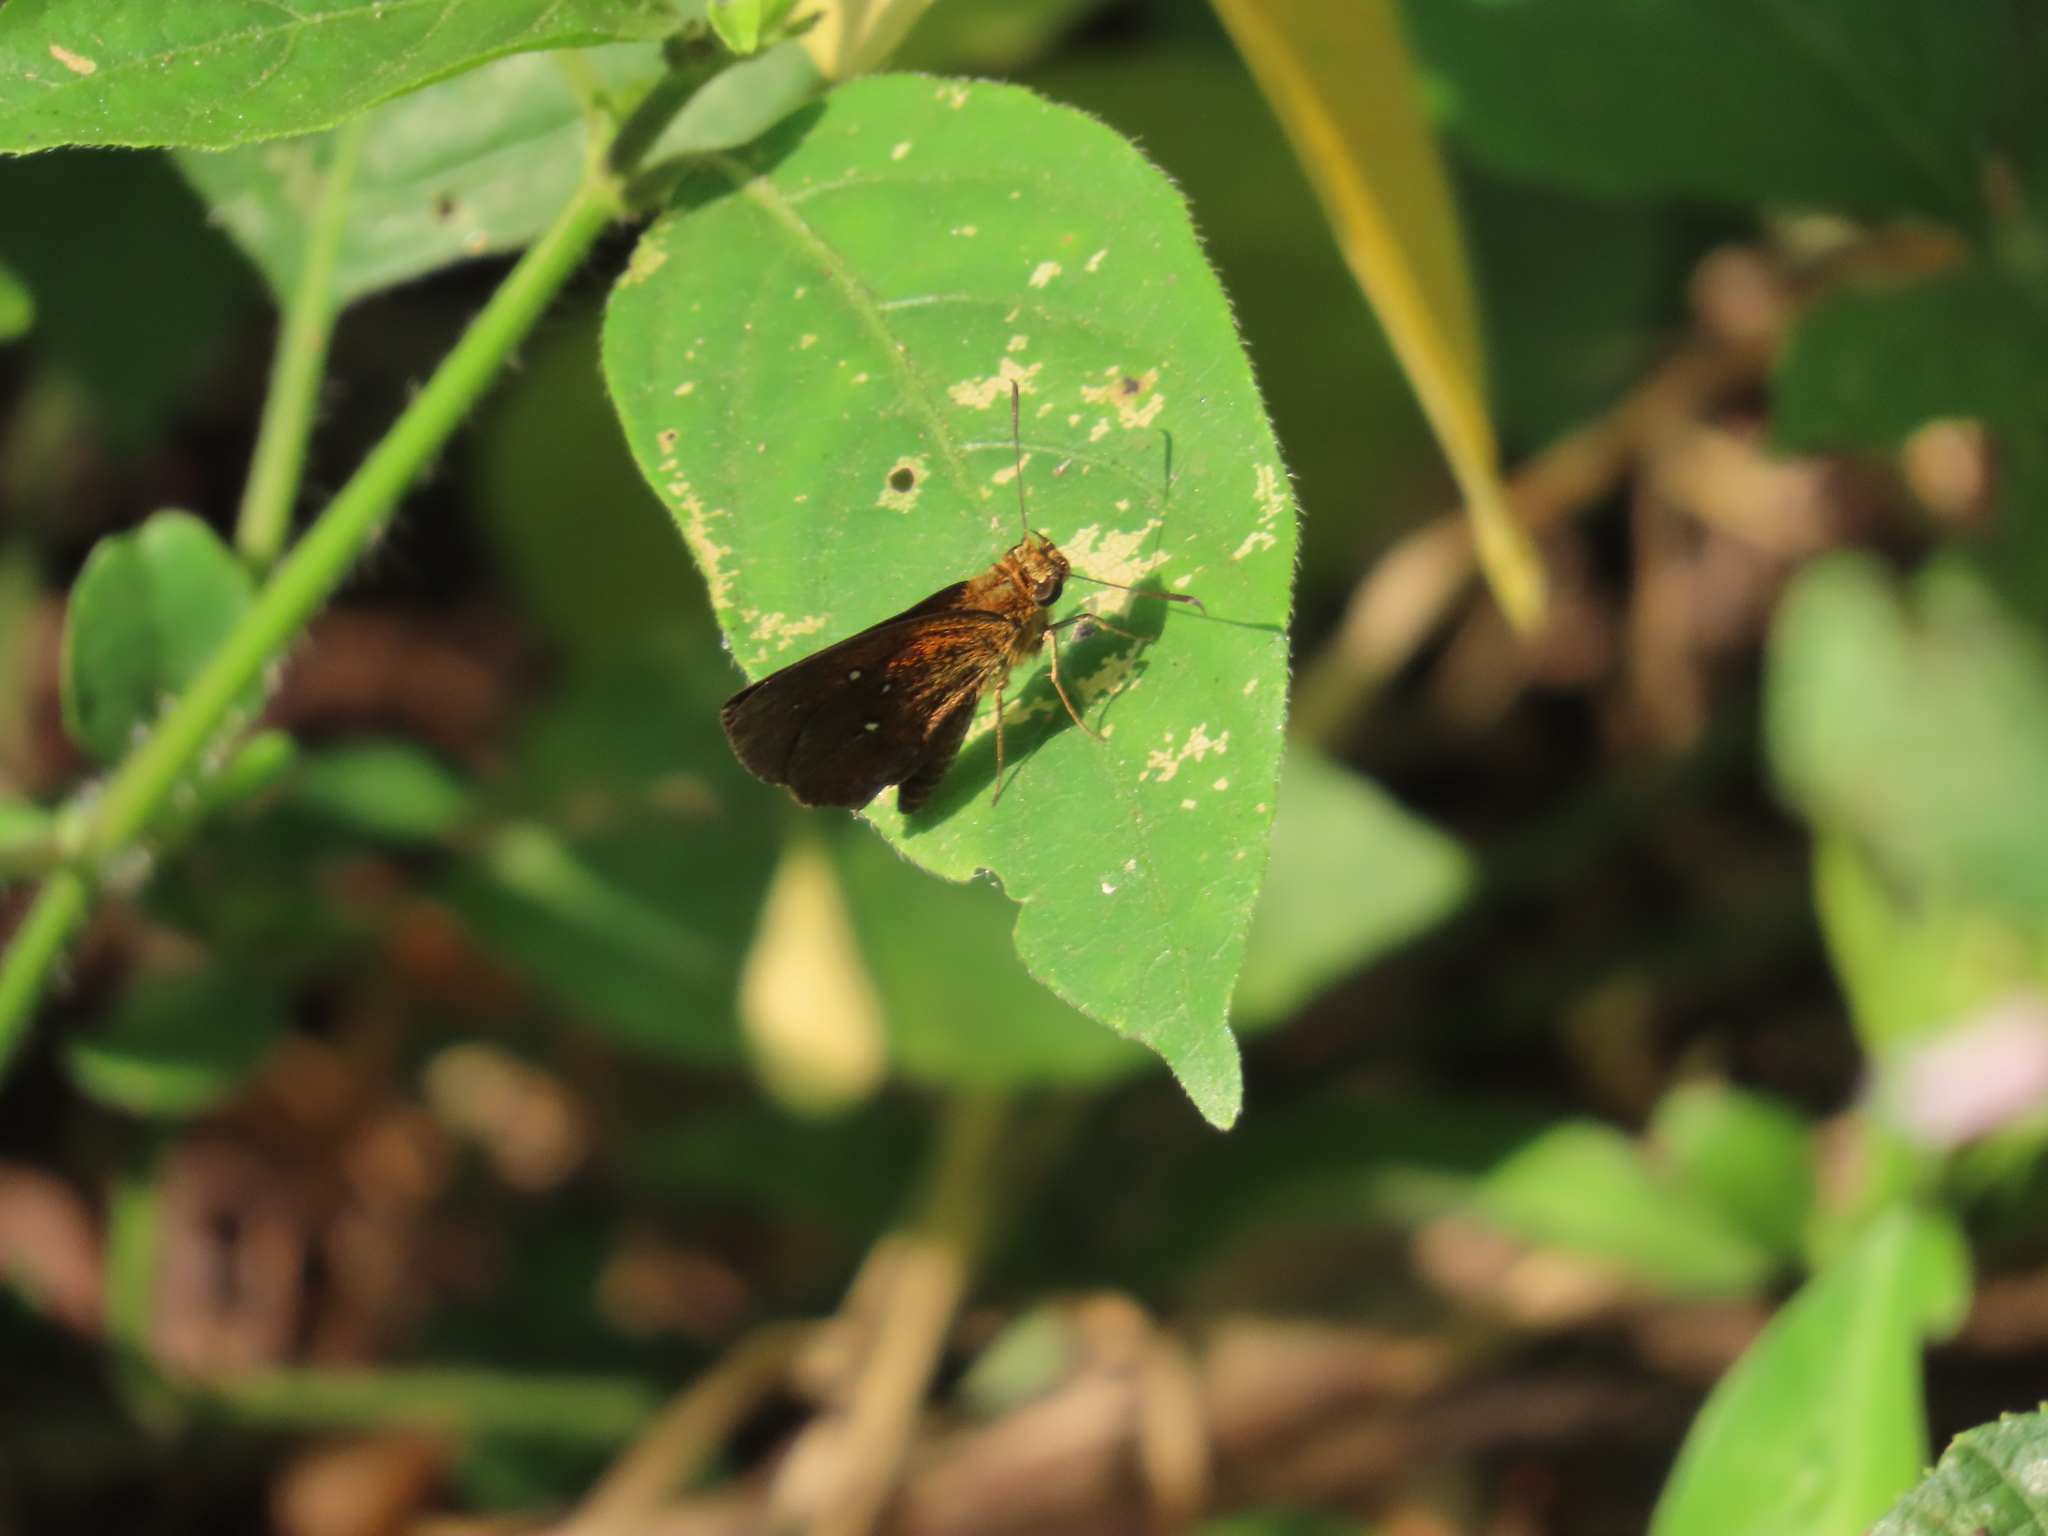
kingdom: Animalia
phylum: Arthropoda
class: Insecta
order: Lepidoptera
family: Hesperiidae
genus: Iambrix
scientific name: Iambrix salsala
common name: Chestnut bob
